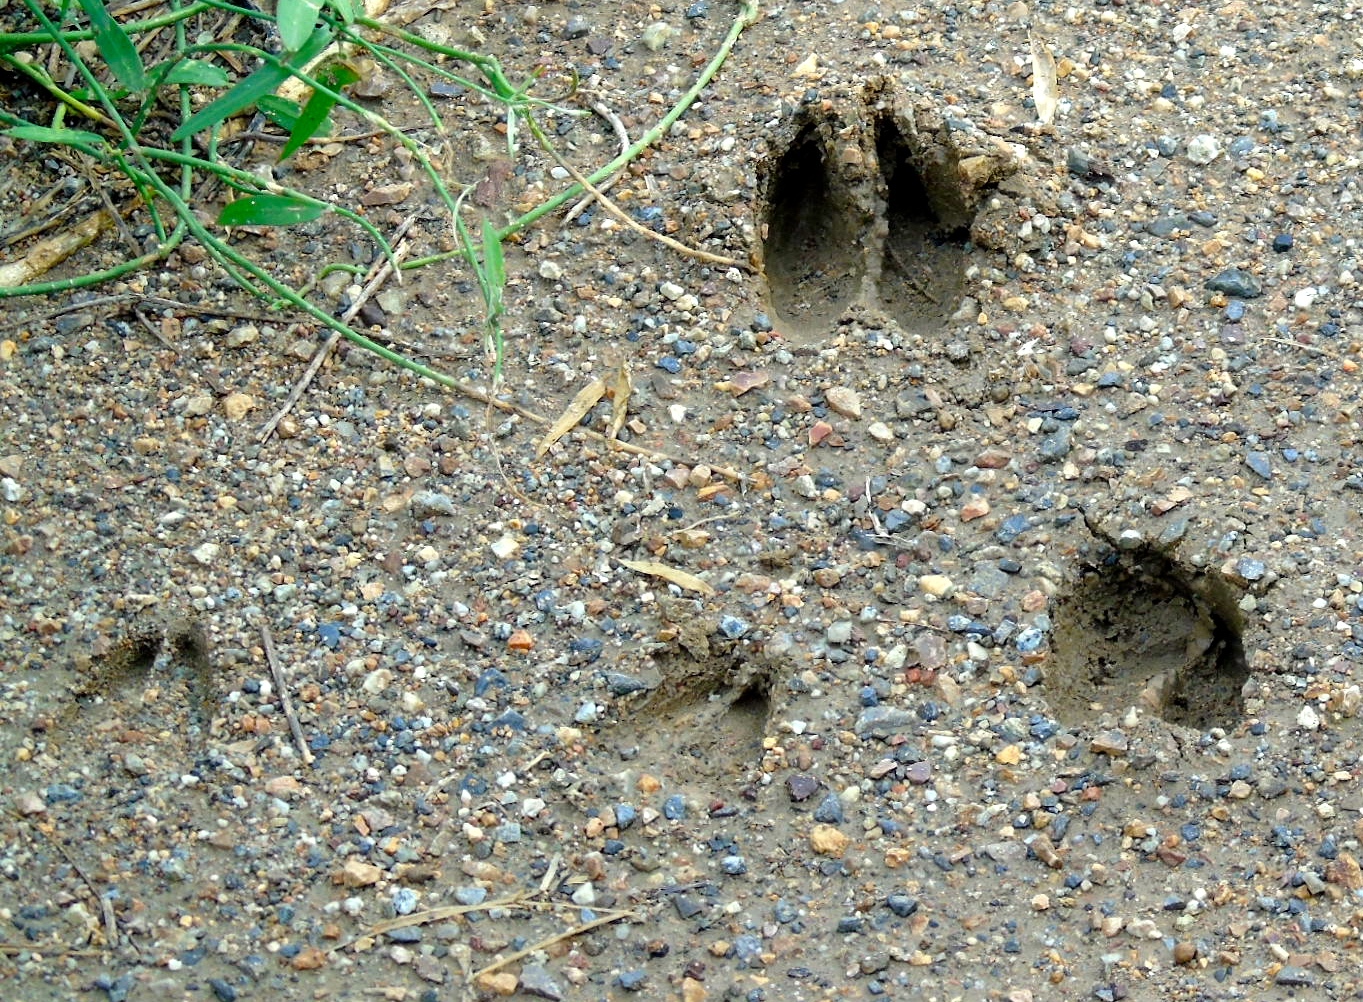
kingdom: Animalia
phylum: Chordata
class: Mammalia
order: Artiodactyla
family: Cervidae
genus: Odocoileus
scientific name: Odocoileus virginianus
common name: White-tailed deer
